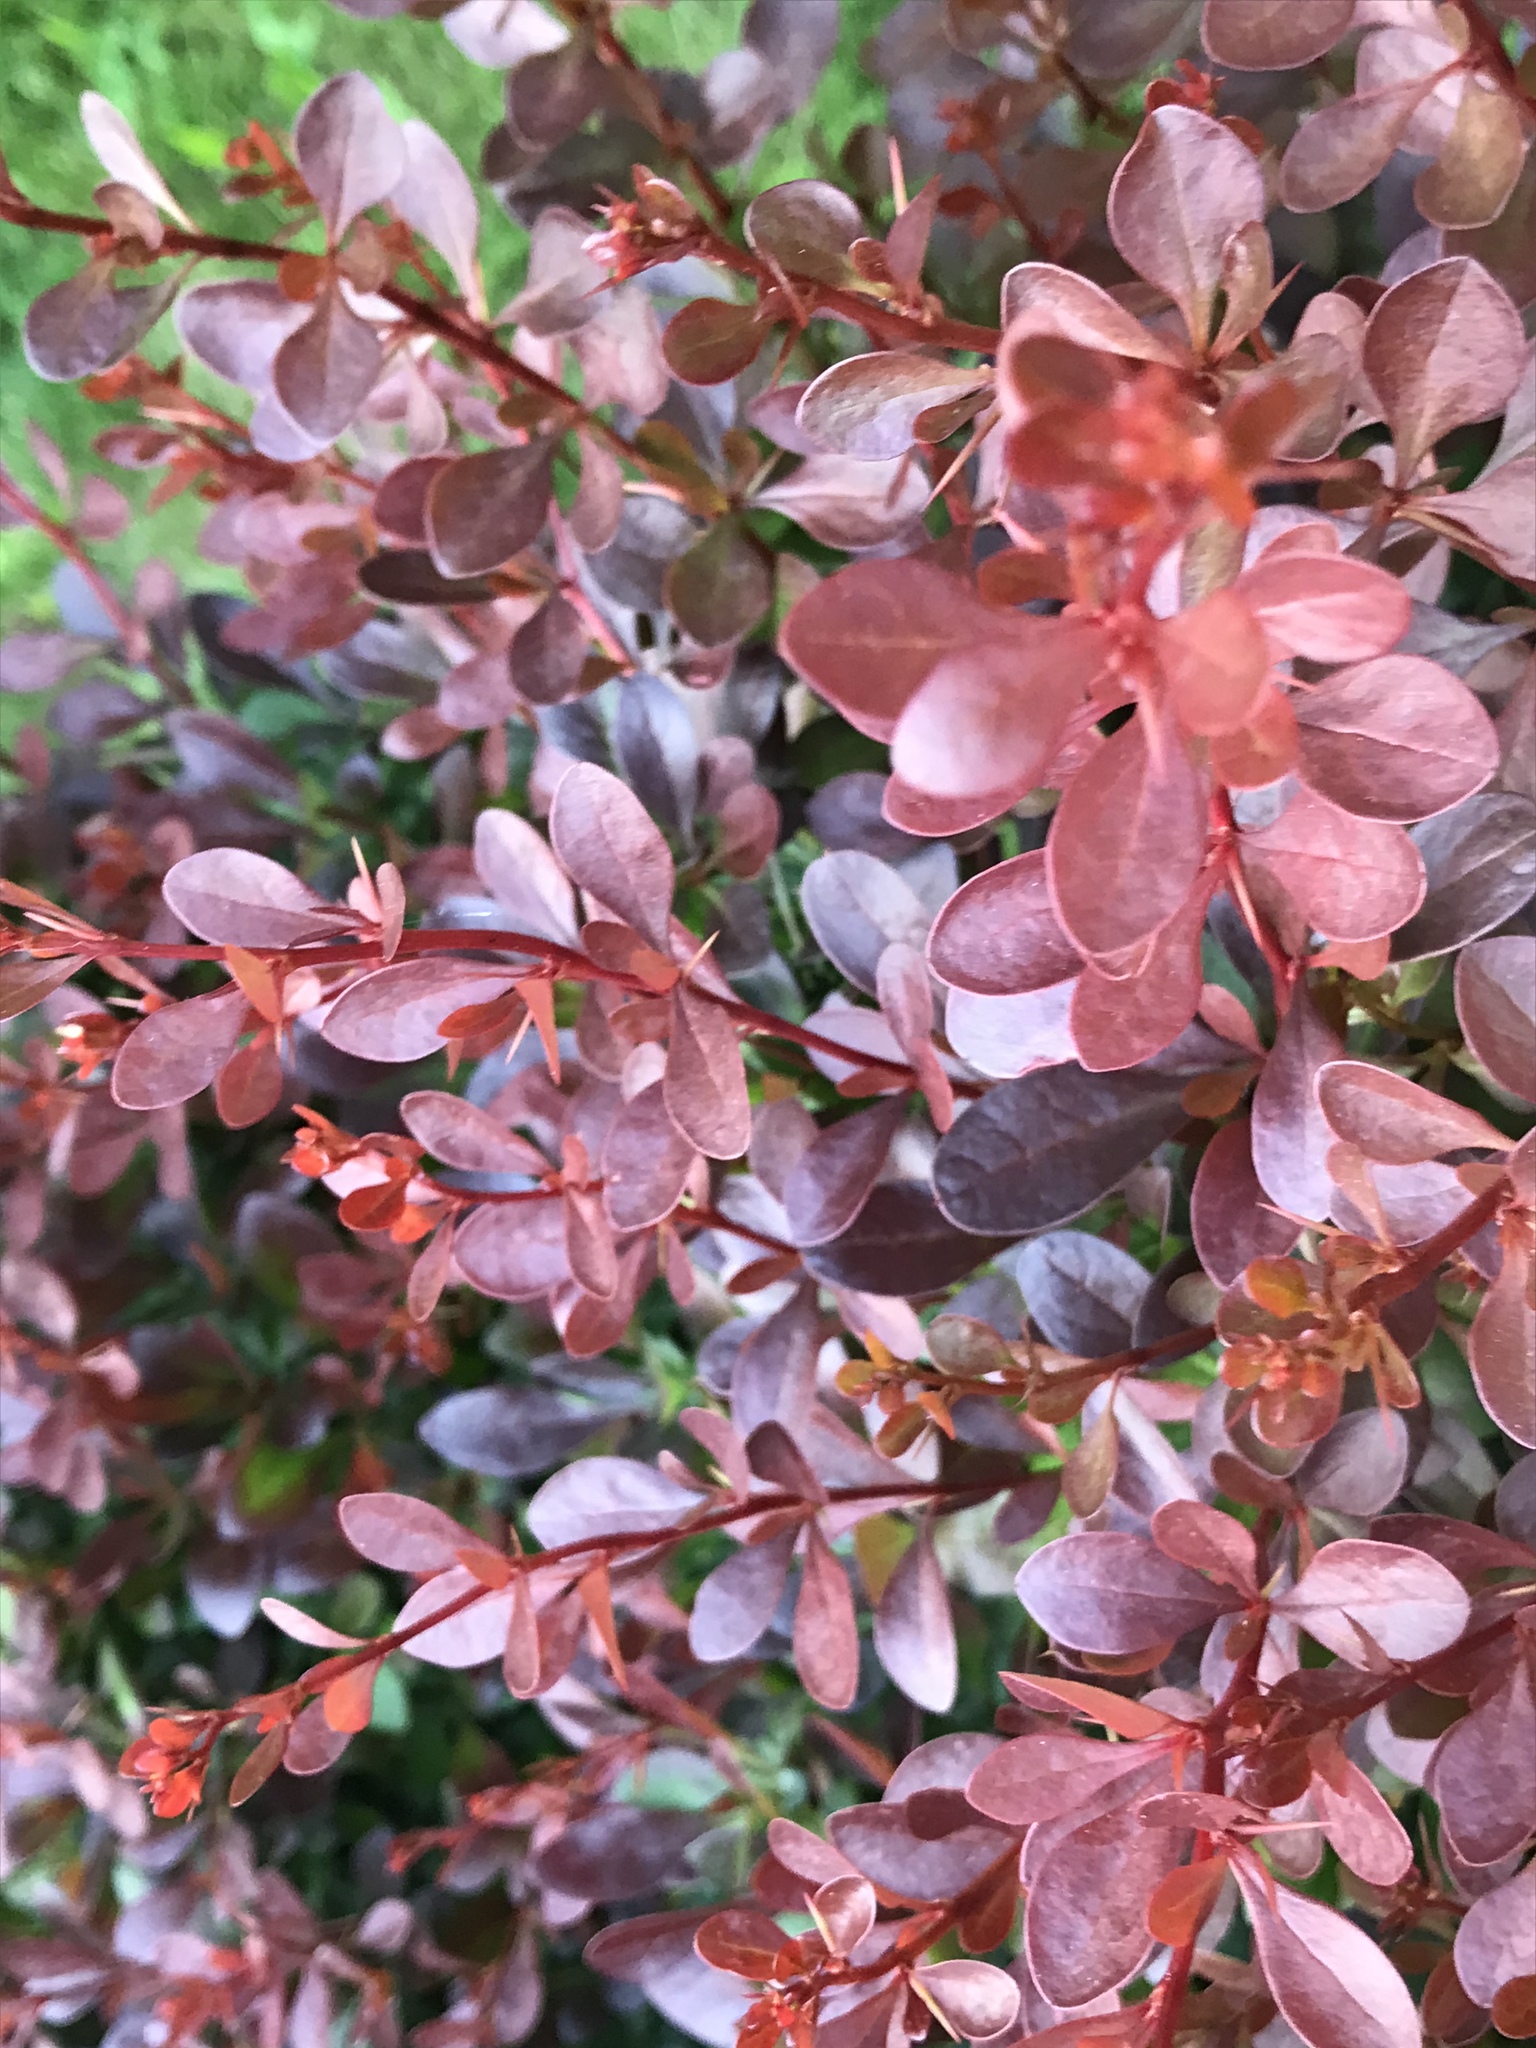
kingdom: Plantae
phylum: Tracheophyta
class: Magnoliopsida
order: Ranunculales
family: Berberidaceae
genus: Berberis
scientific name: Berberis thunbergii
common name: Japanese barberry
